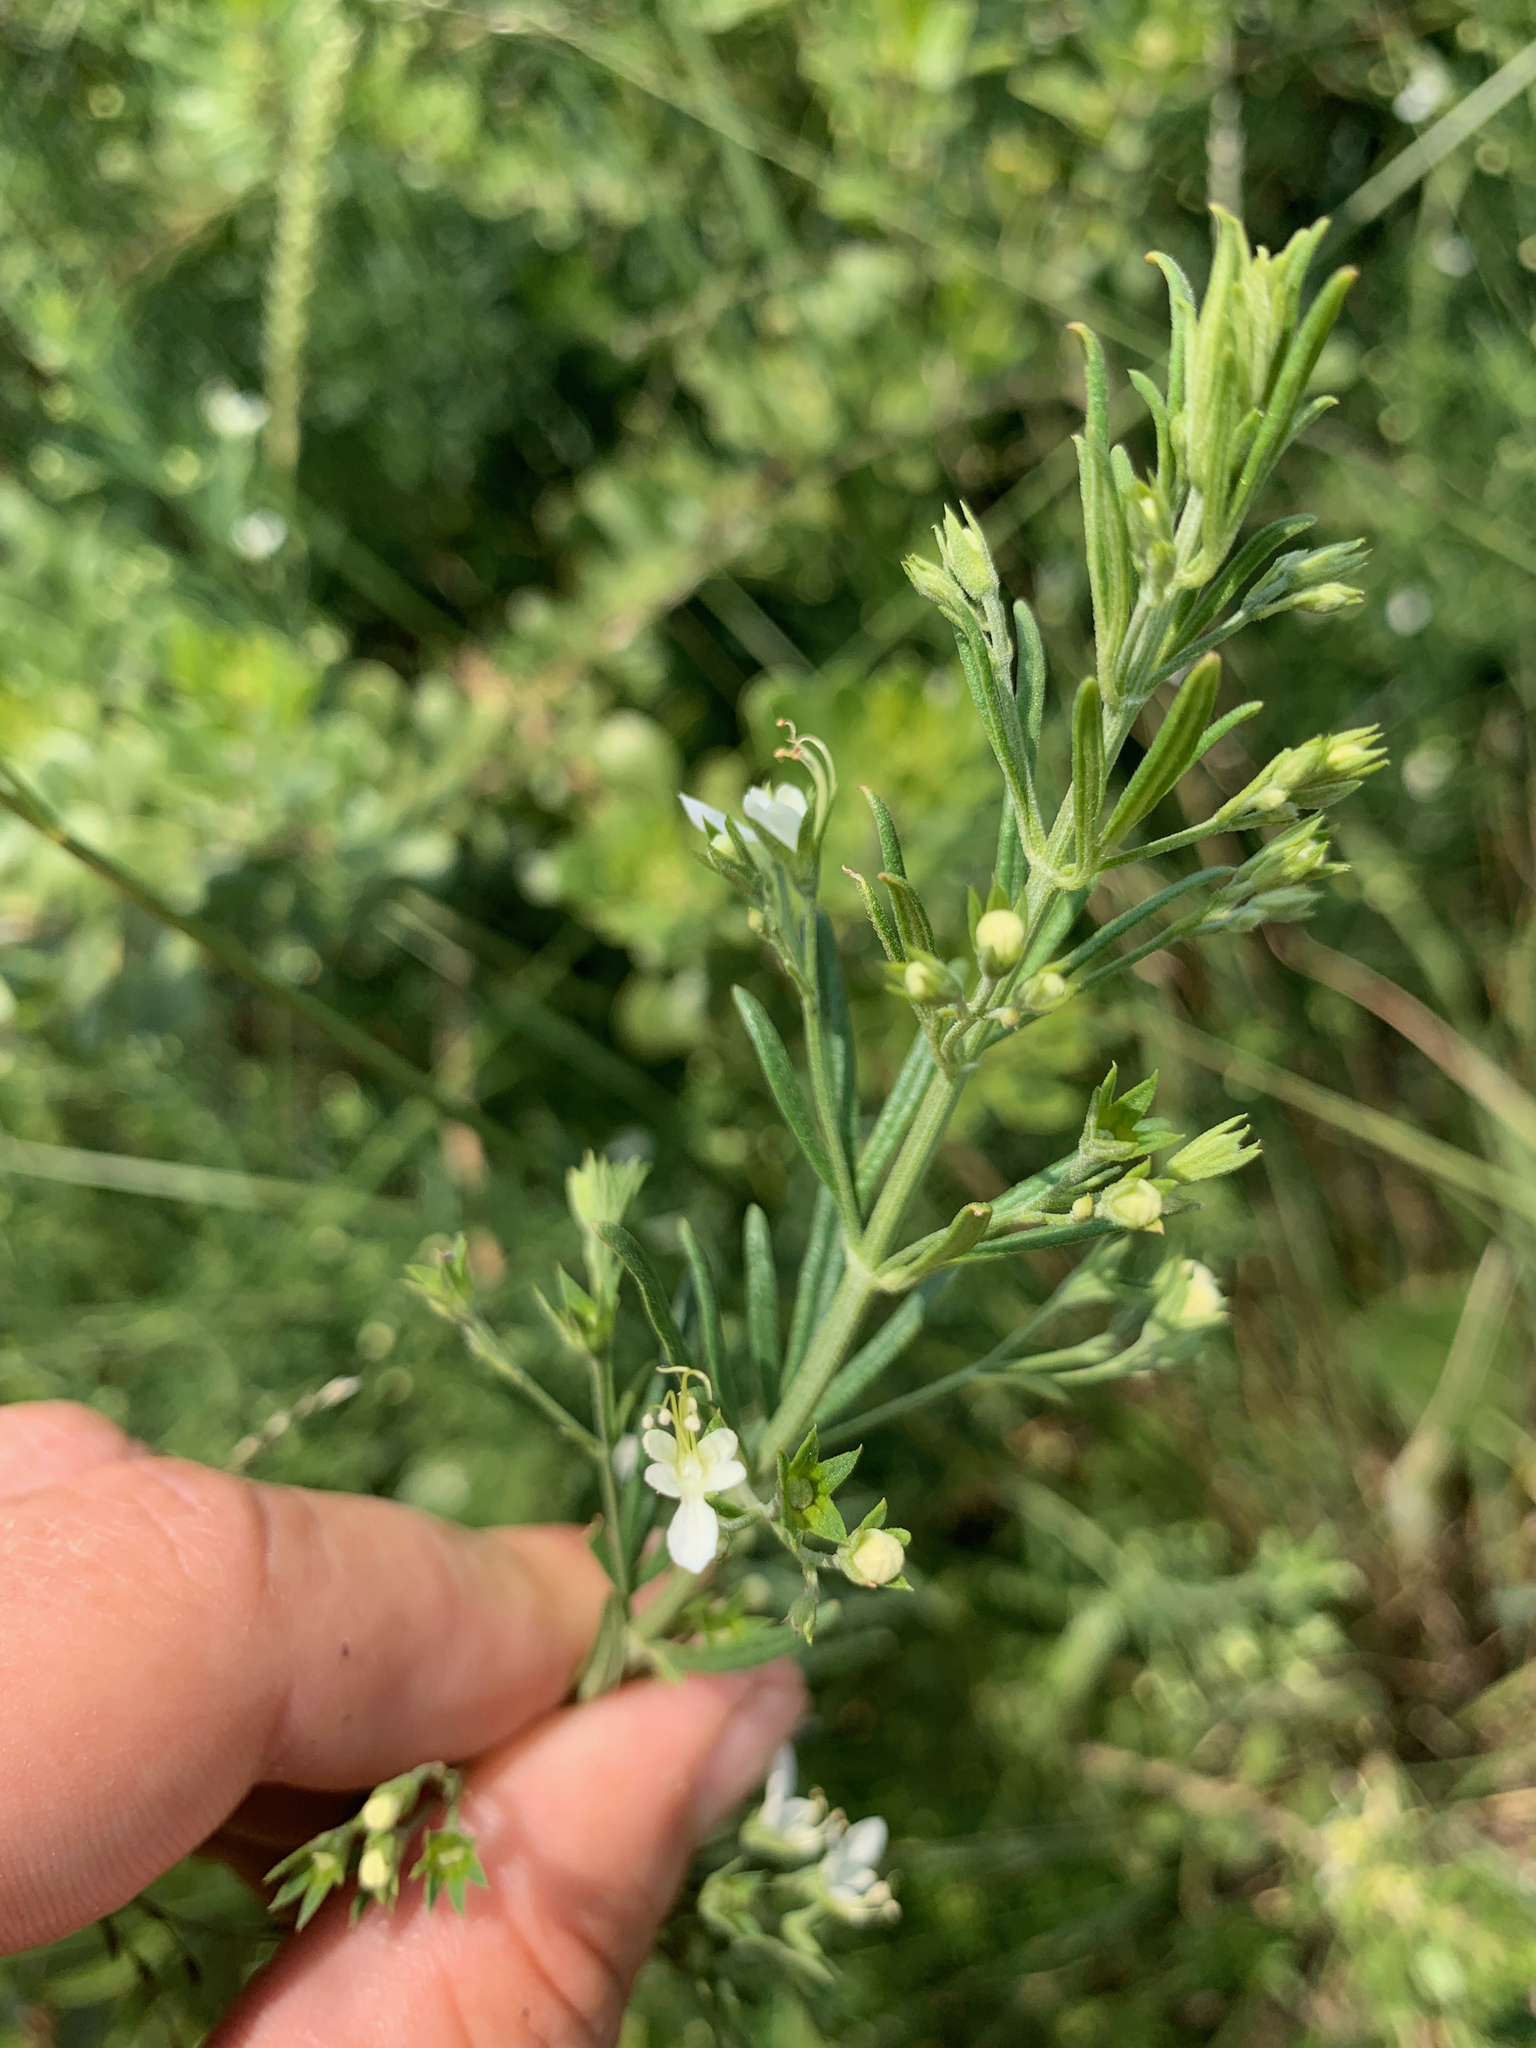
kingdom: Plantae
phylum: Tracheophyta
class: Magnoliopsida
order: Lamiales
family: Lamiaceae
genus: Teucrium
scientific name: Teucrium trifidum
